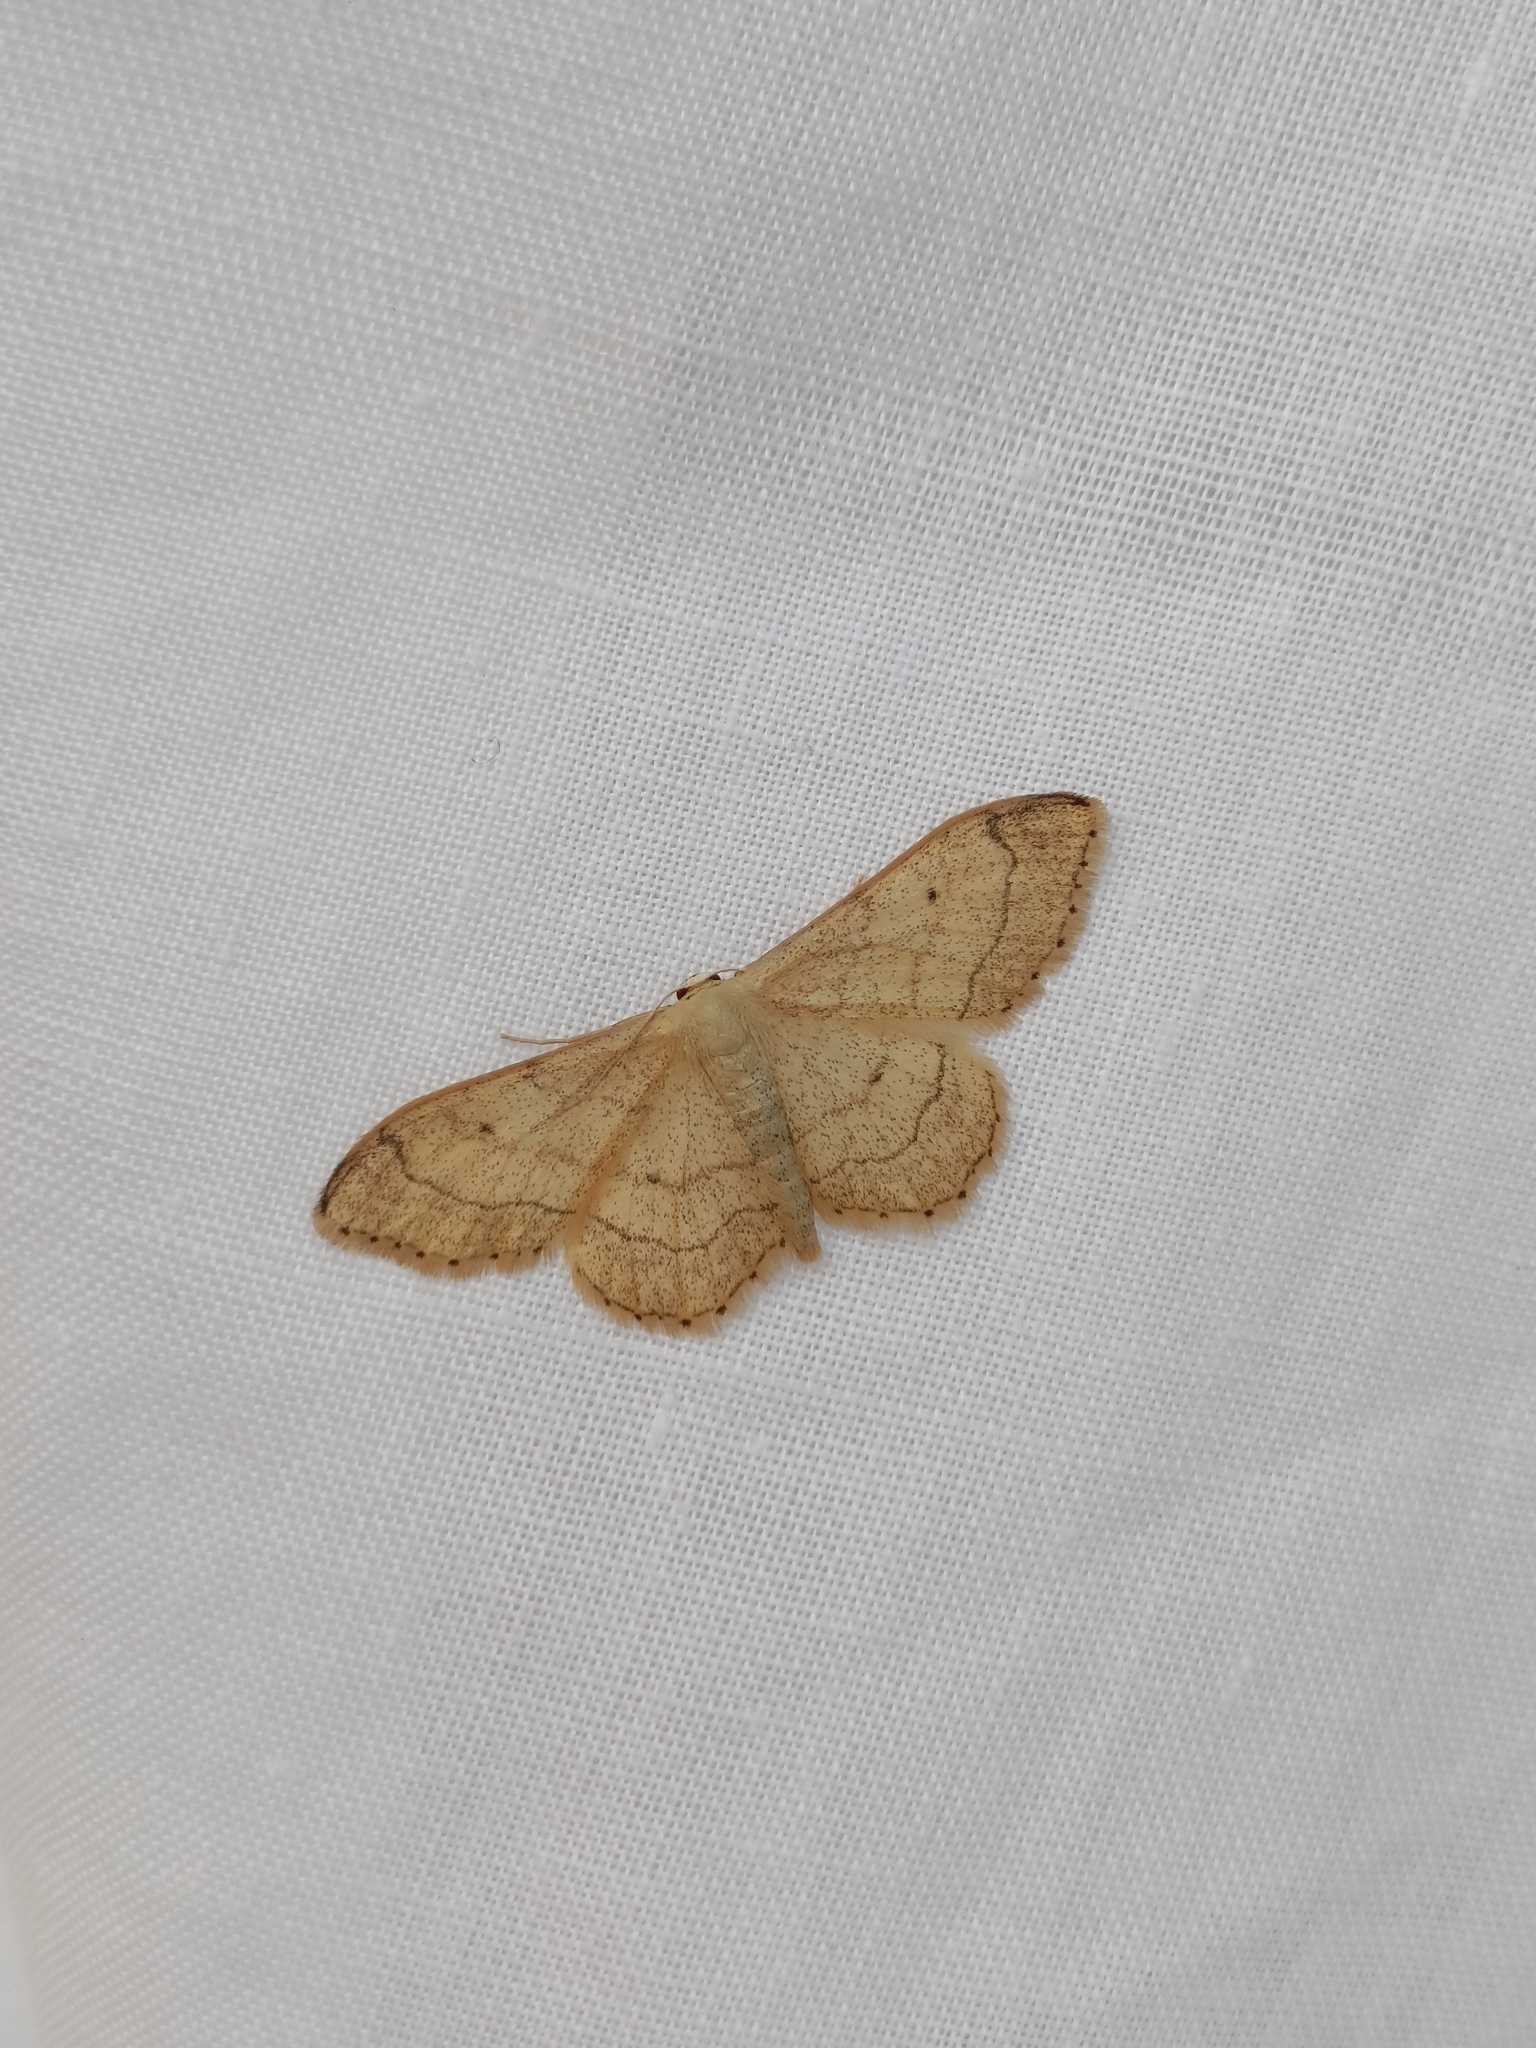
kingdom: Animalia
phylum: Arthropoda
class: Insecta
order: Lepidoptera
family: Geometridae
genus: Idaea
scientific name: Idaea aversata
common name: Riband wave
